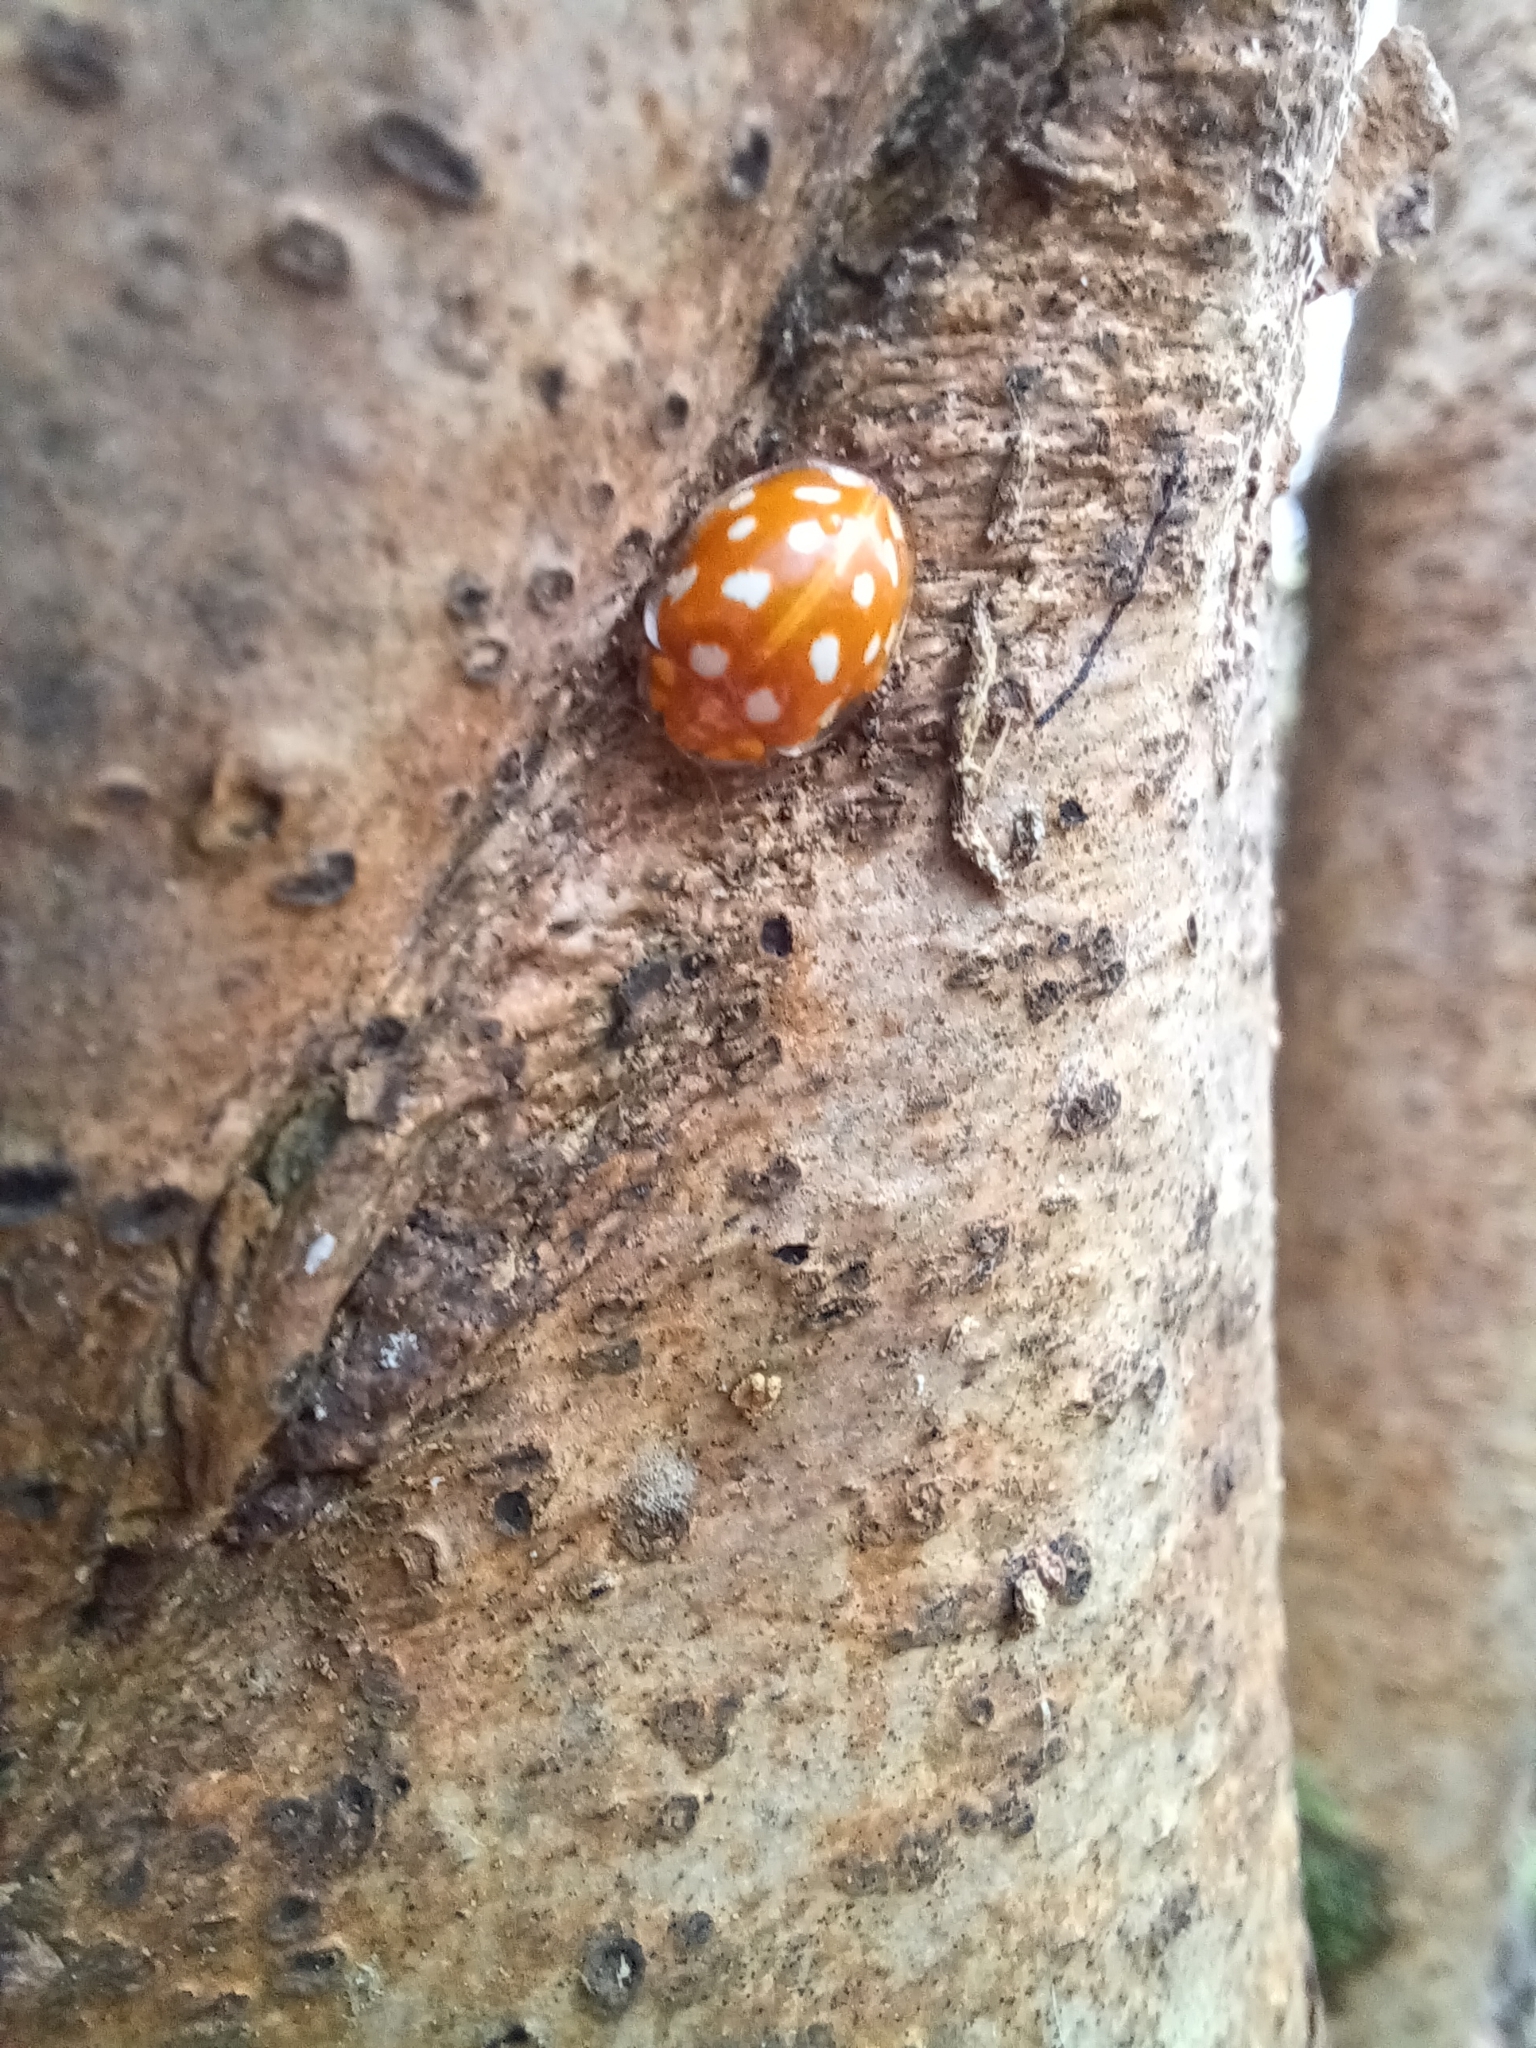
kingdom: Animalia
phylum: Arthropoda
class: Insecta
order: Coleoptera
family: Coccinellidae
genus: Halyzia
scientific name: Halyzia sedecimguttata
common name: Orange ladybird
